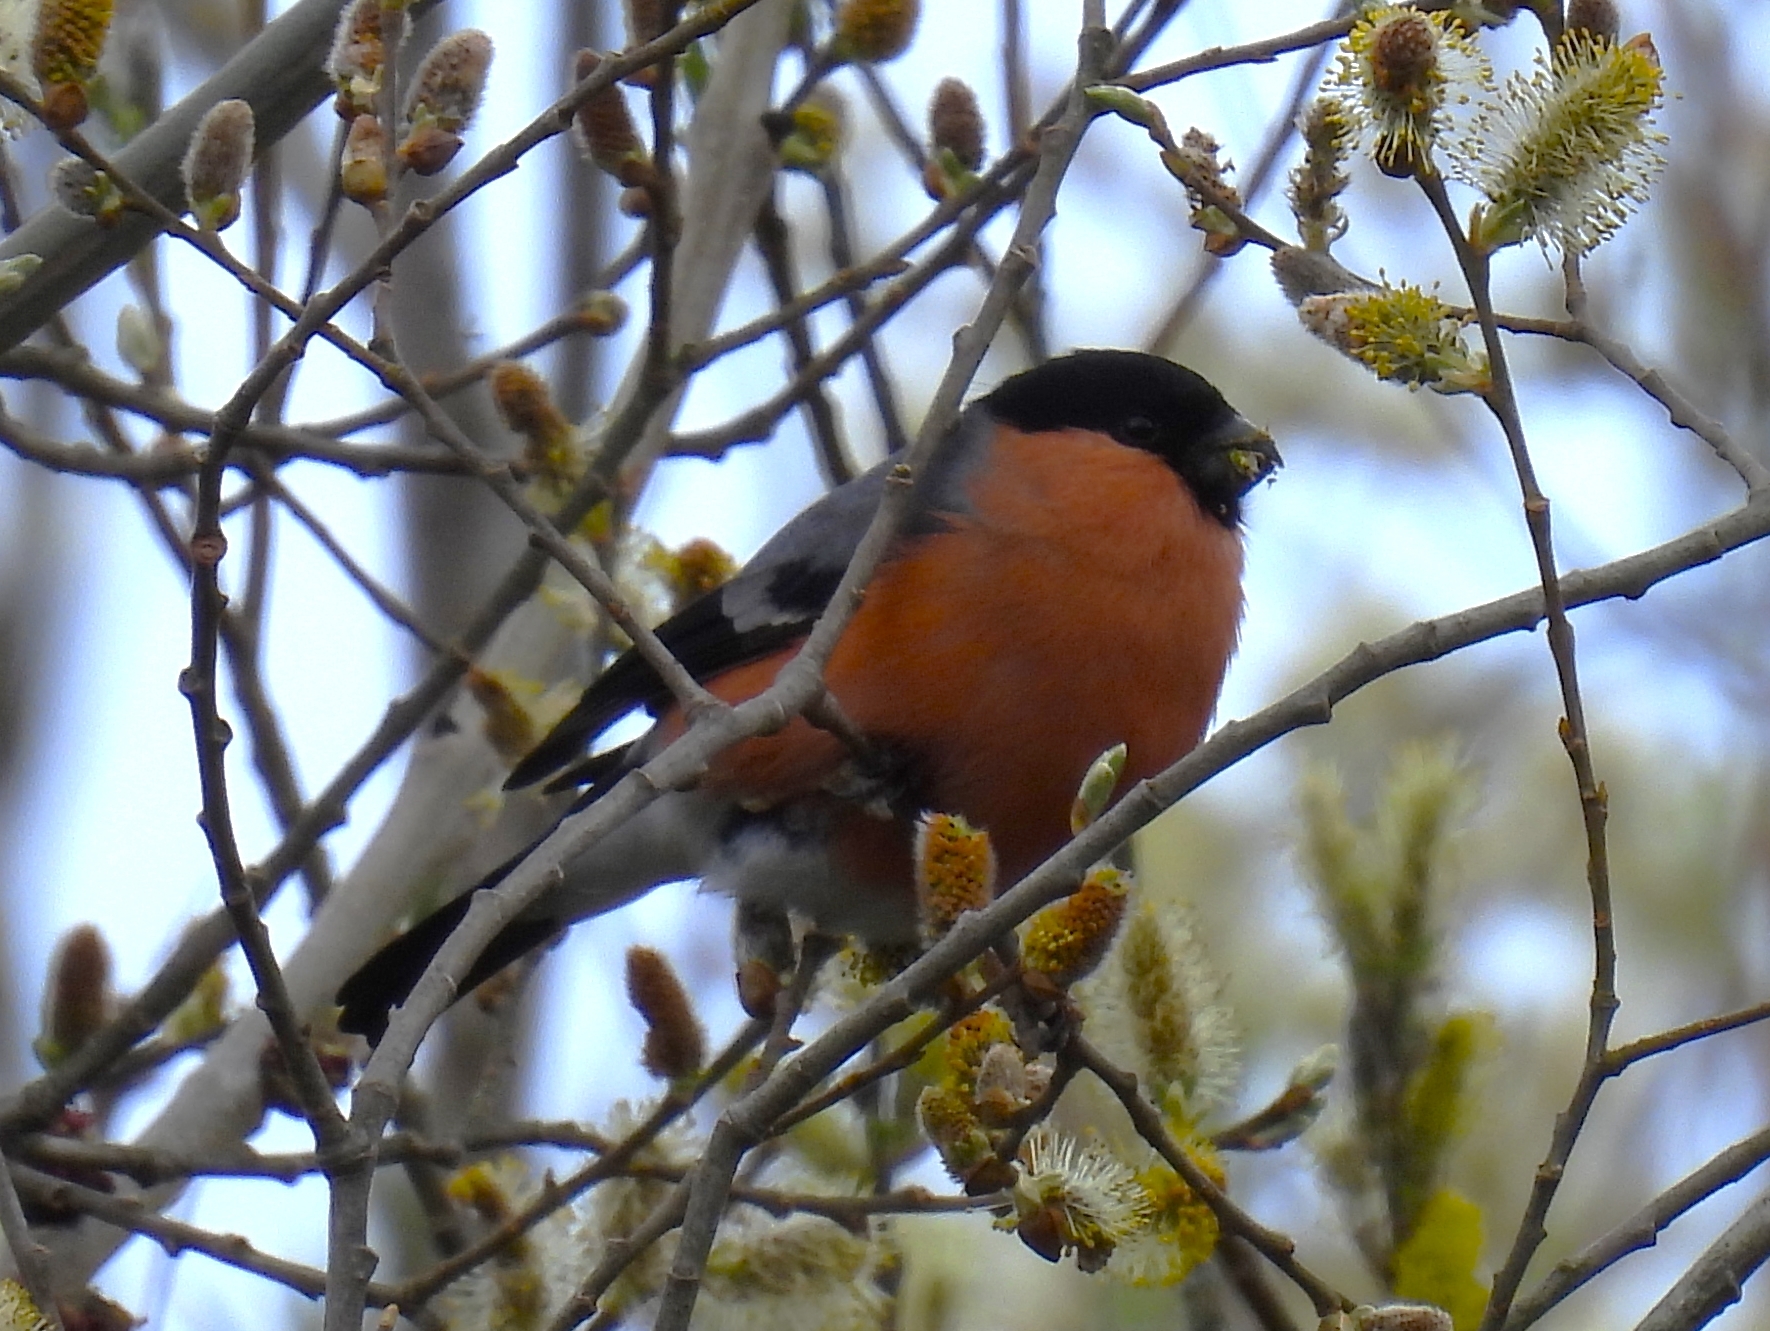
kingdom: Animalia
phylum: Chordata
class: Aves
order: Passeriformes
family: Fringillidae
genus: Pyrrhula
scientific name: Pyrrhula pyrrhula
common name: Eurasian bullfinch
